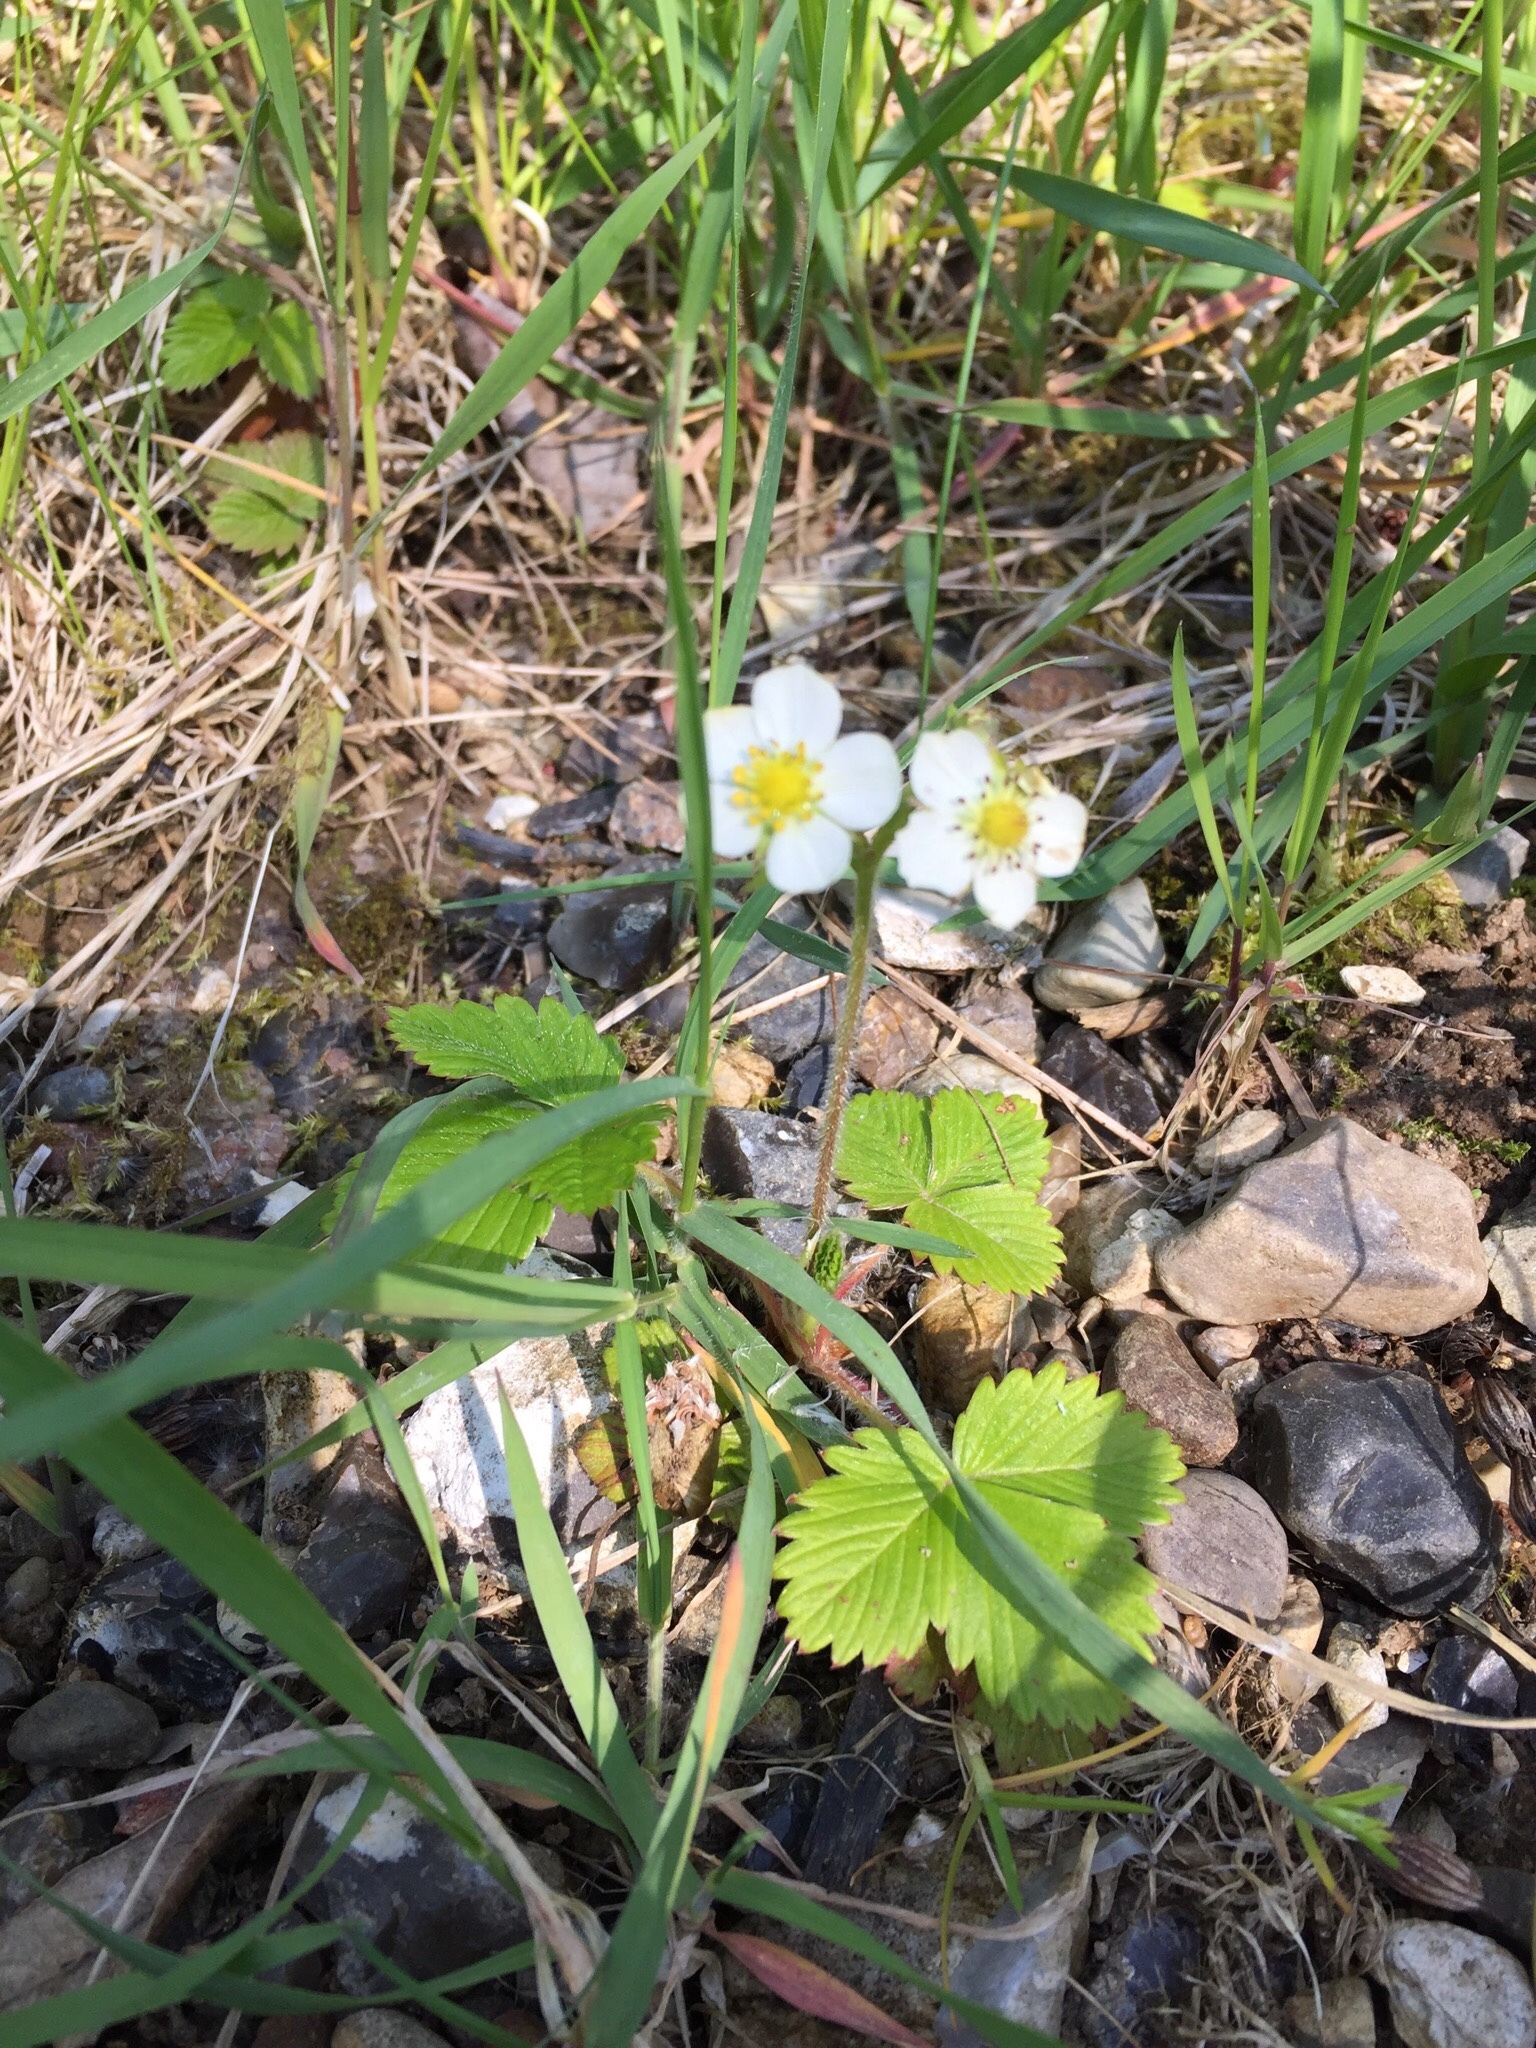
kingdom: Plantae
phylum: Tracheophyta
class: Magnoliopsida
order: Rosales
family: Rosaceae
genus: Fragaria
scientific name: Fragaria vesca
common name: Wild strawberry
